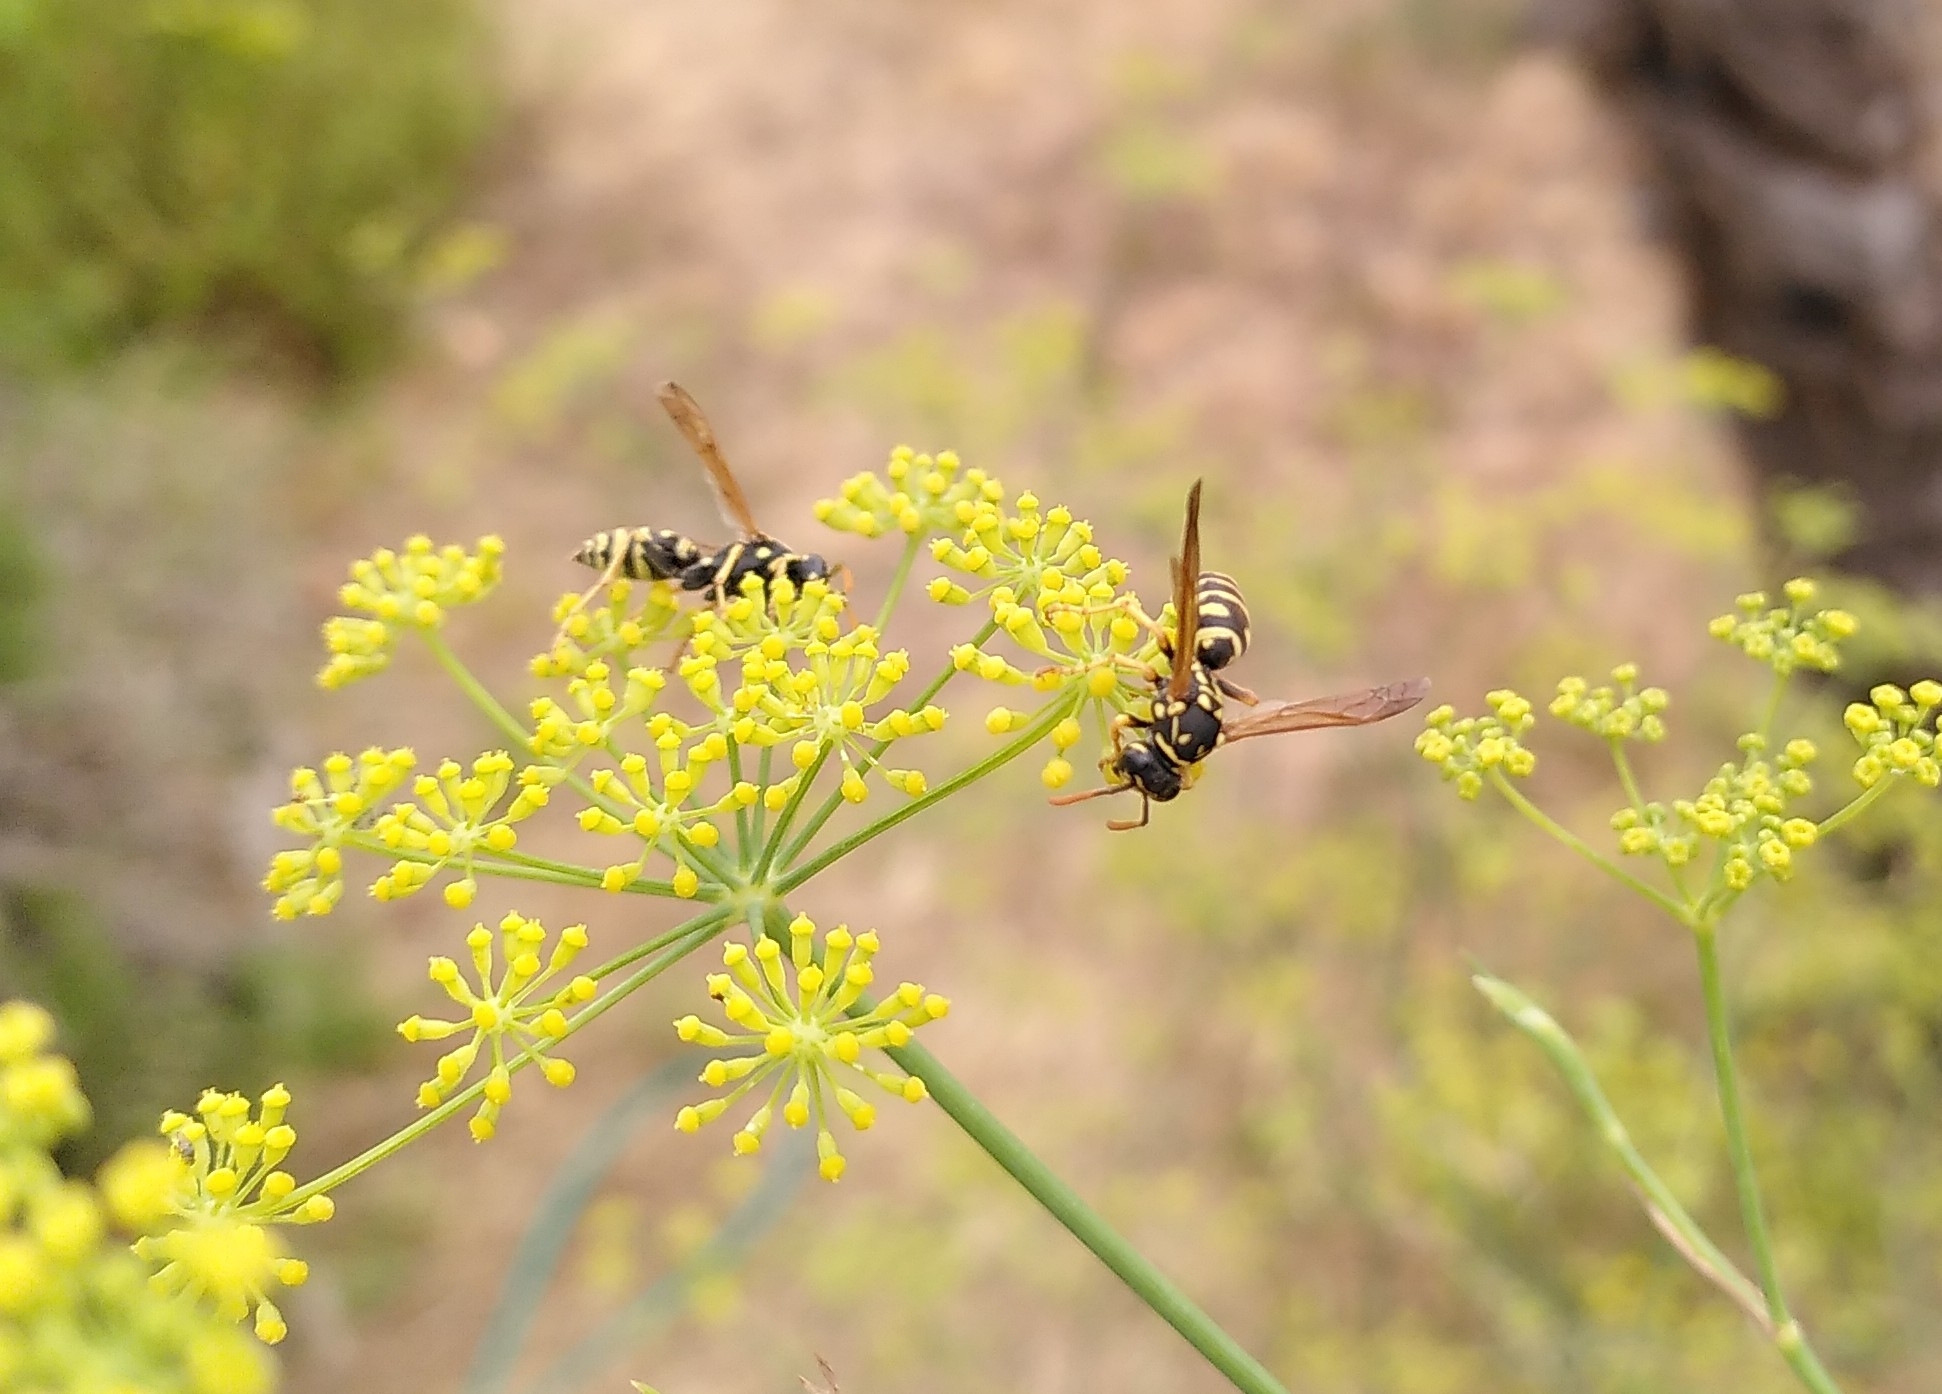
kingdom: Animalia
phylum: Arthropoda
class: Insecta
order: Hymenoptera
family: Eumenidae
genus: Polistes
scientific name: Polistes dominula
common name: Paper wasp
